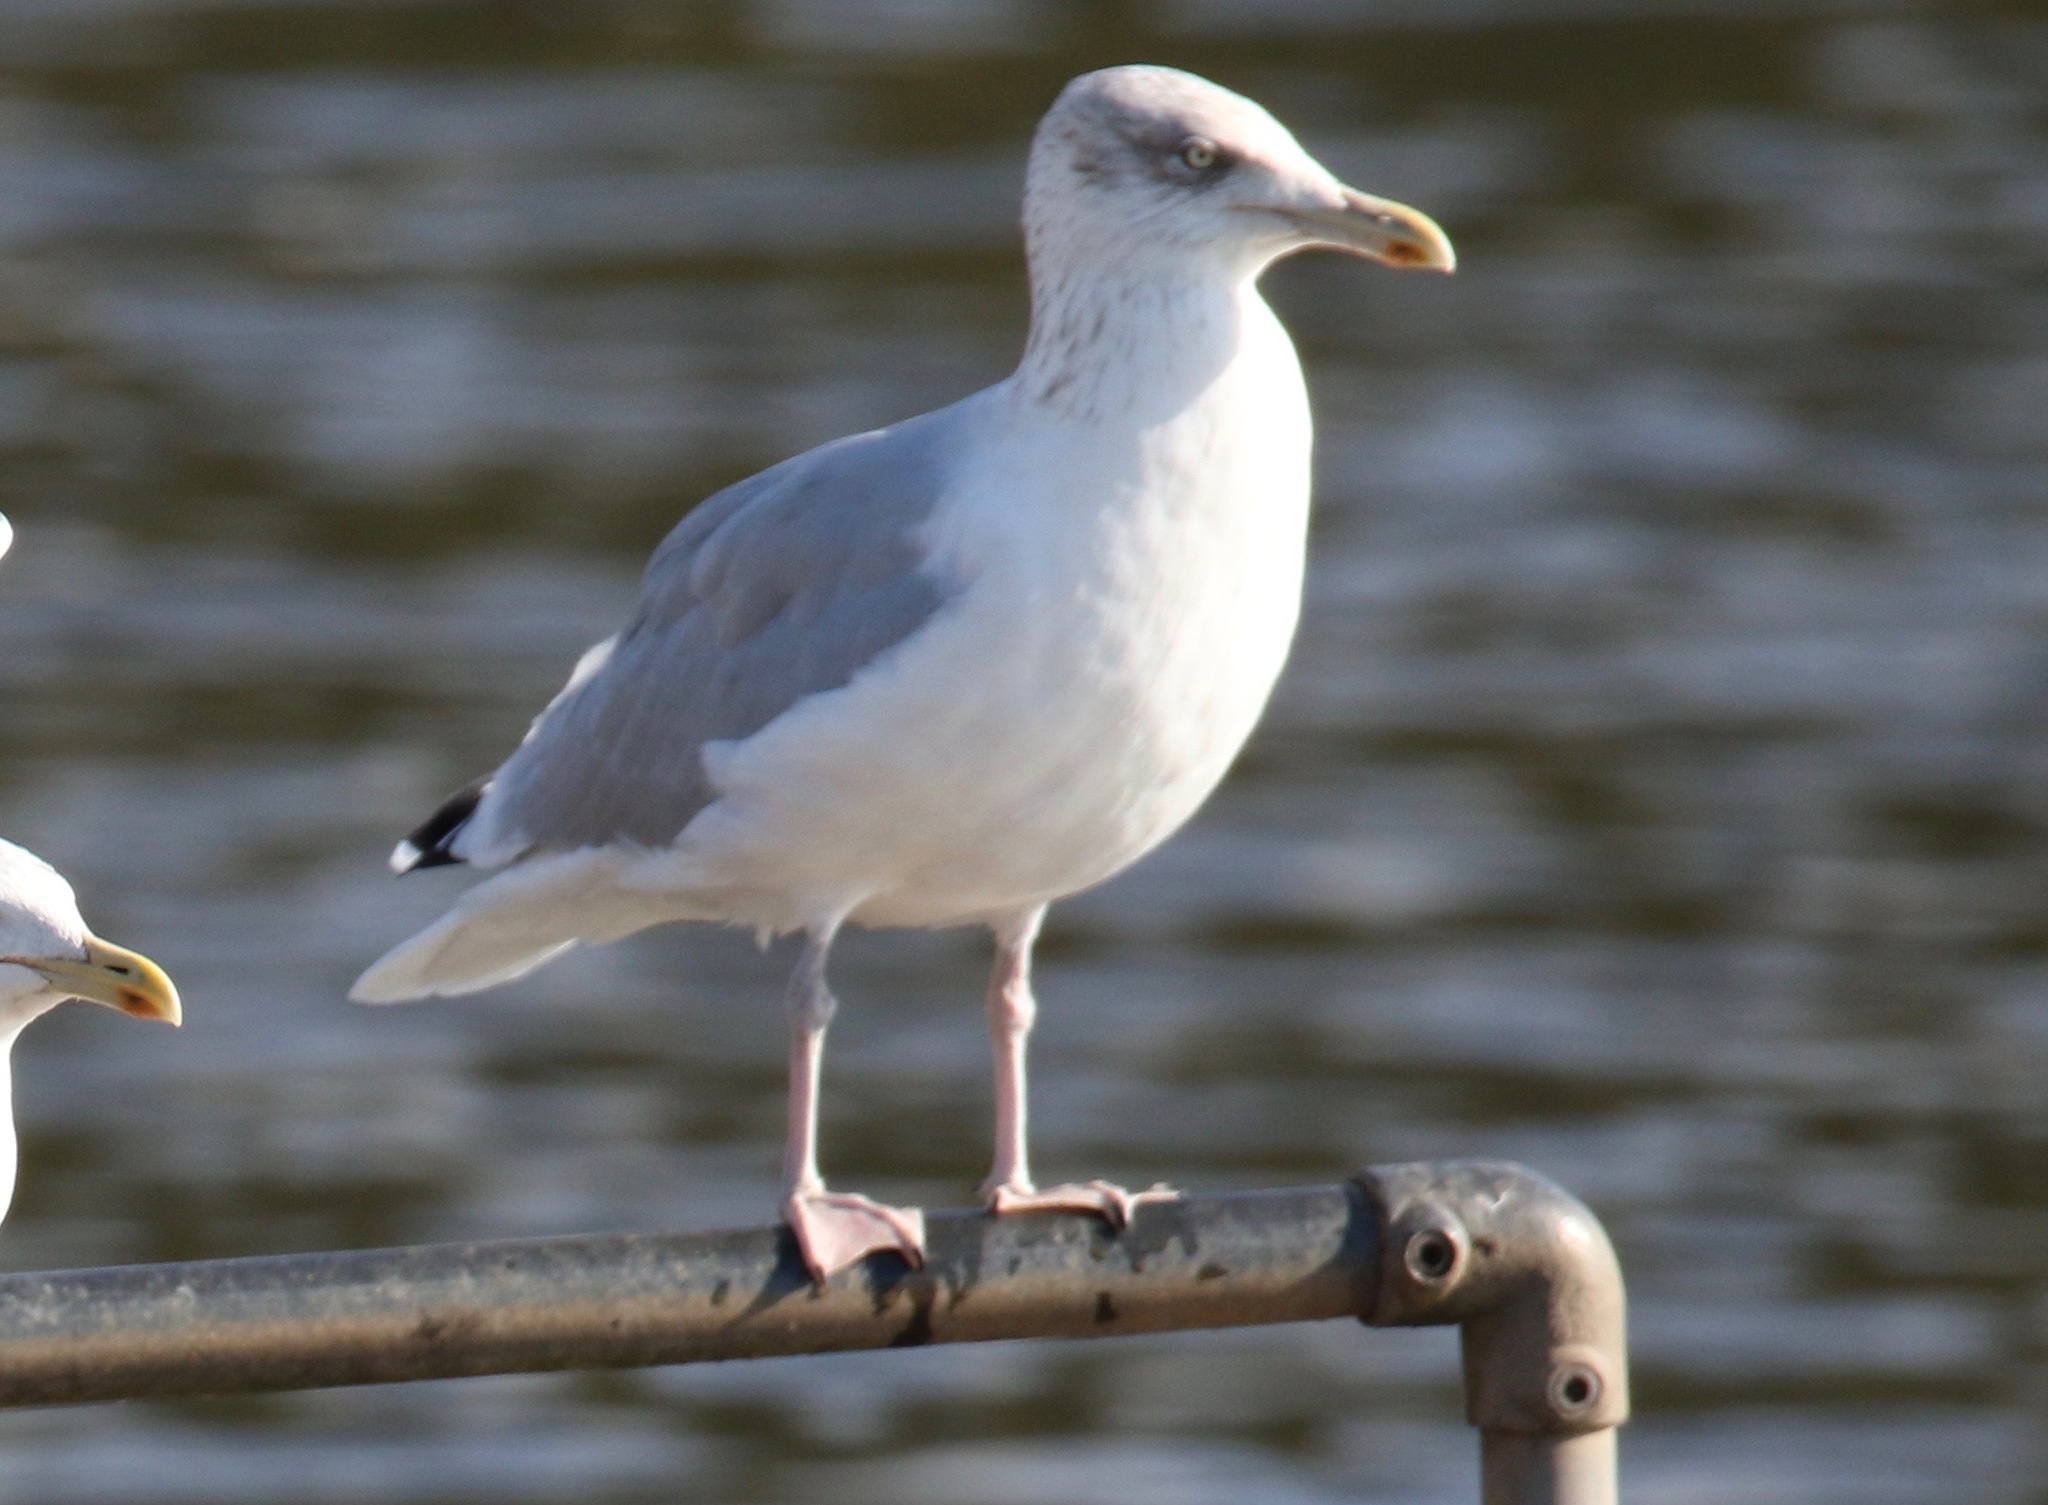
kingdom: Animalia
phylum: Chordata
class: Aves
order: Charadriiformes
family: Laridae
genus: Larus
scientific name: Larus argentatus
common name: Herring gull
